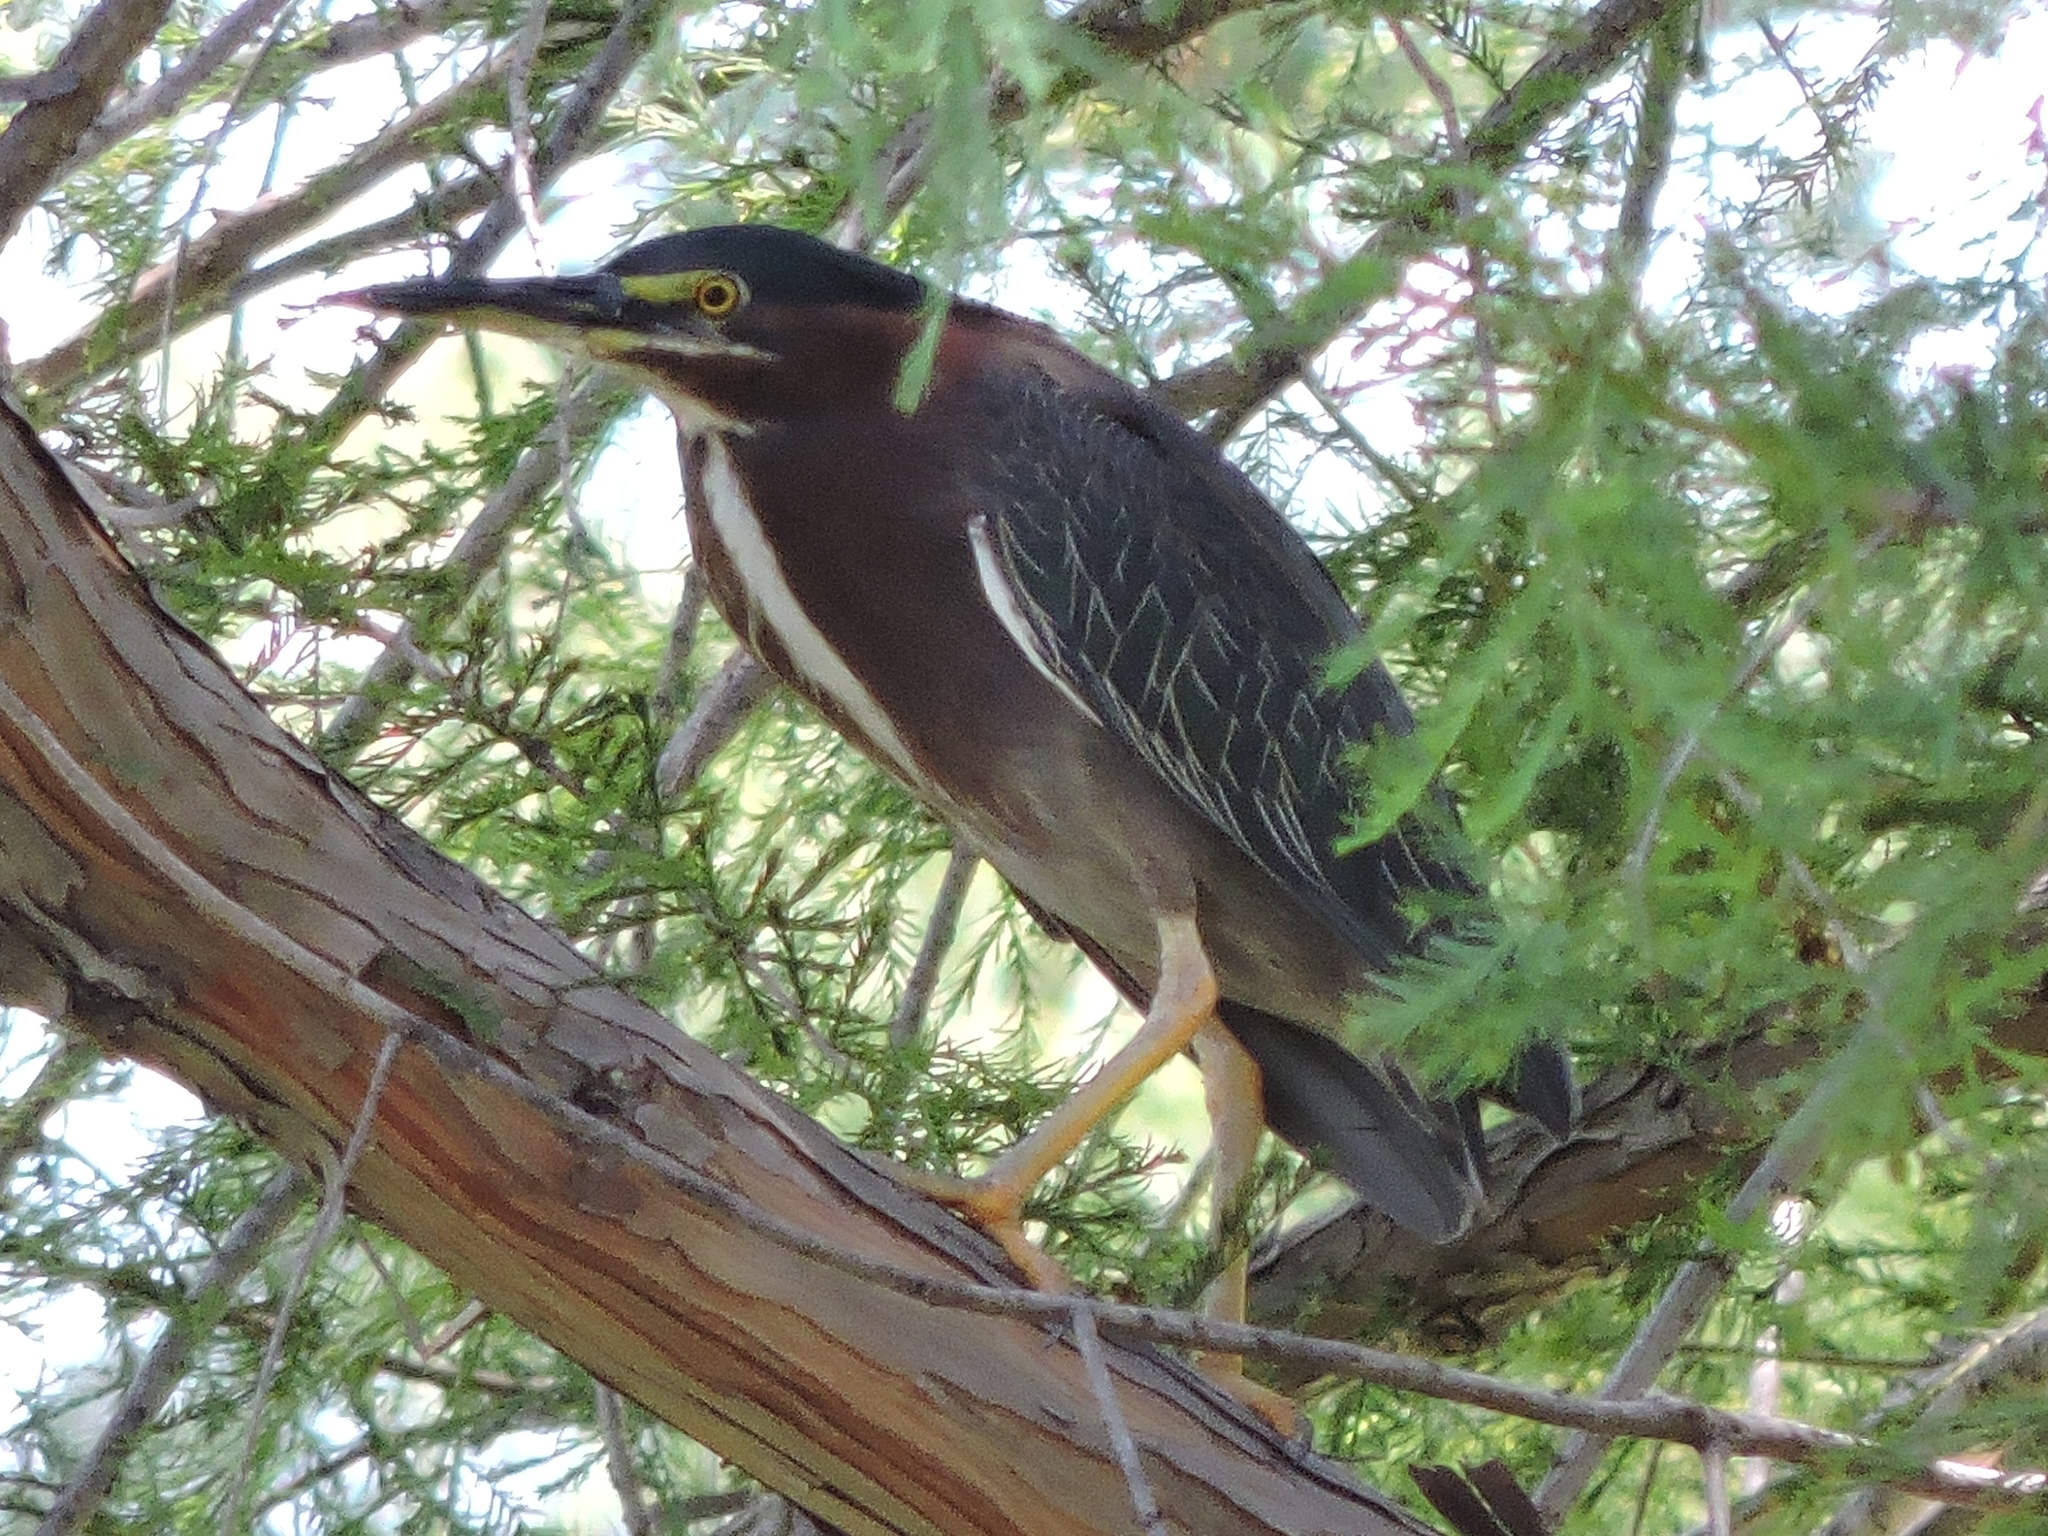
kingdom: Animalia
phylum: Chordata
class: Aves
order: Pelecaniformes
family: Ardeidae
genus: Butorides
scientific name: Butorides virescens
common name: Green heron
